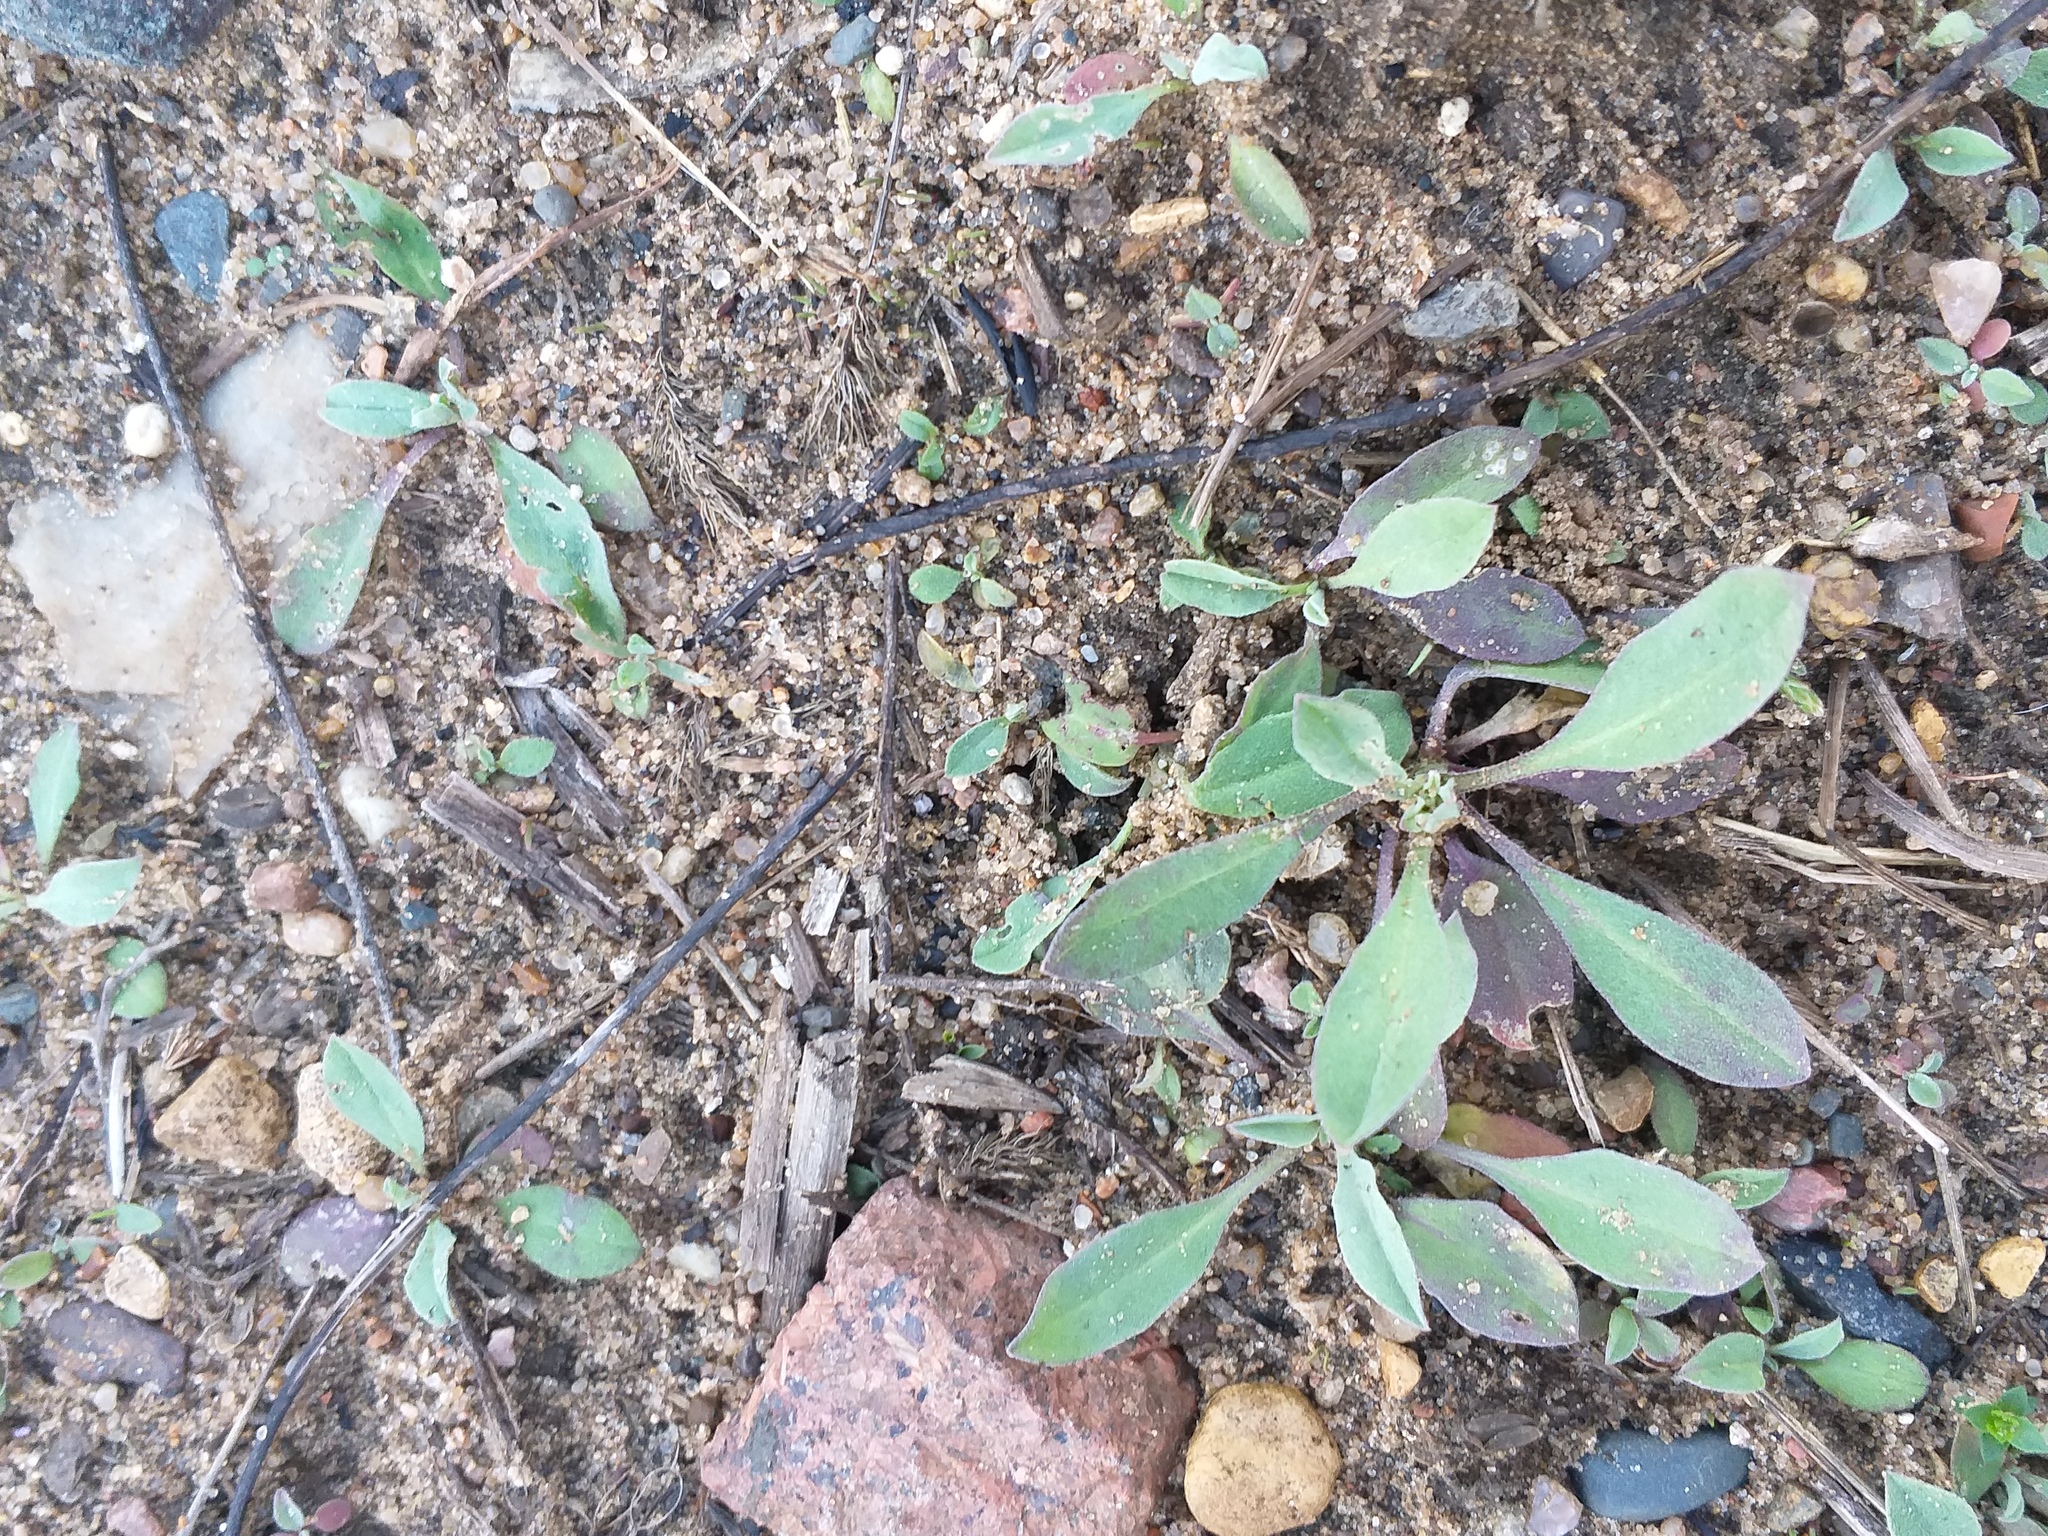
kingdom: Plantae
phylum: Tracheophyta
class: Magnoliopsida
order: Brassicales
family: Brassicaceae
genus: Berteroa
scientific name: Berteroa incana
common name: Hoary alison
